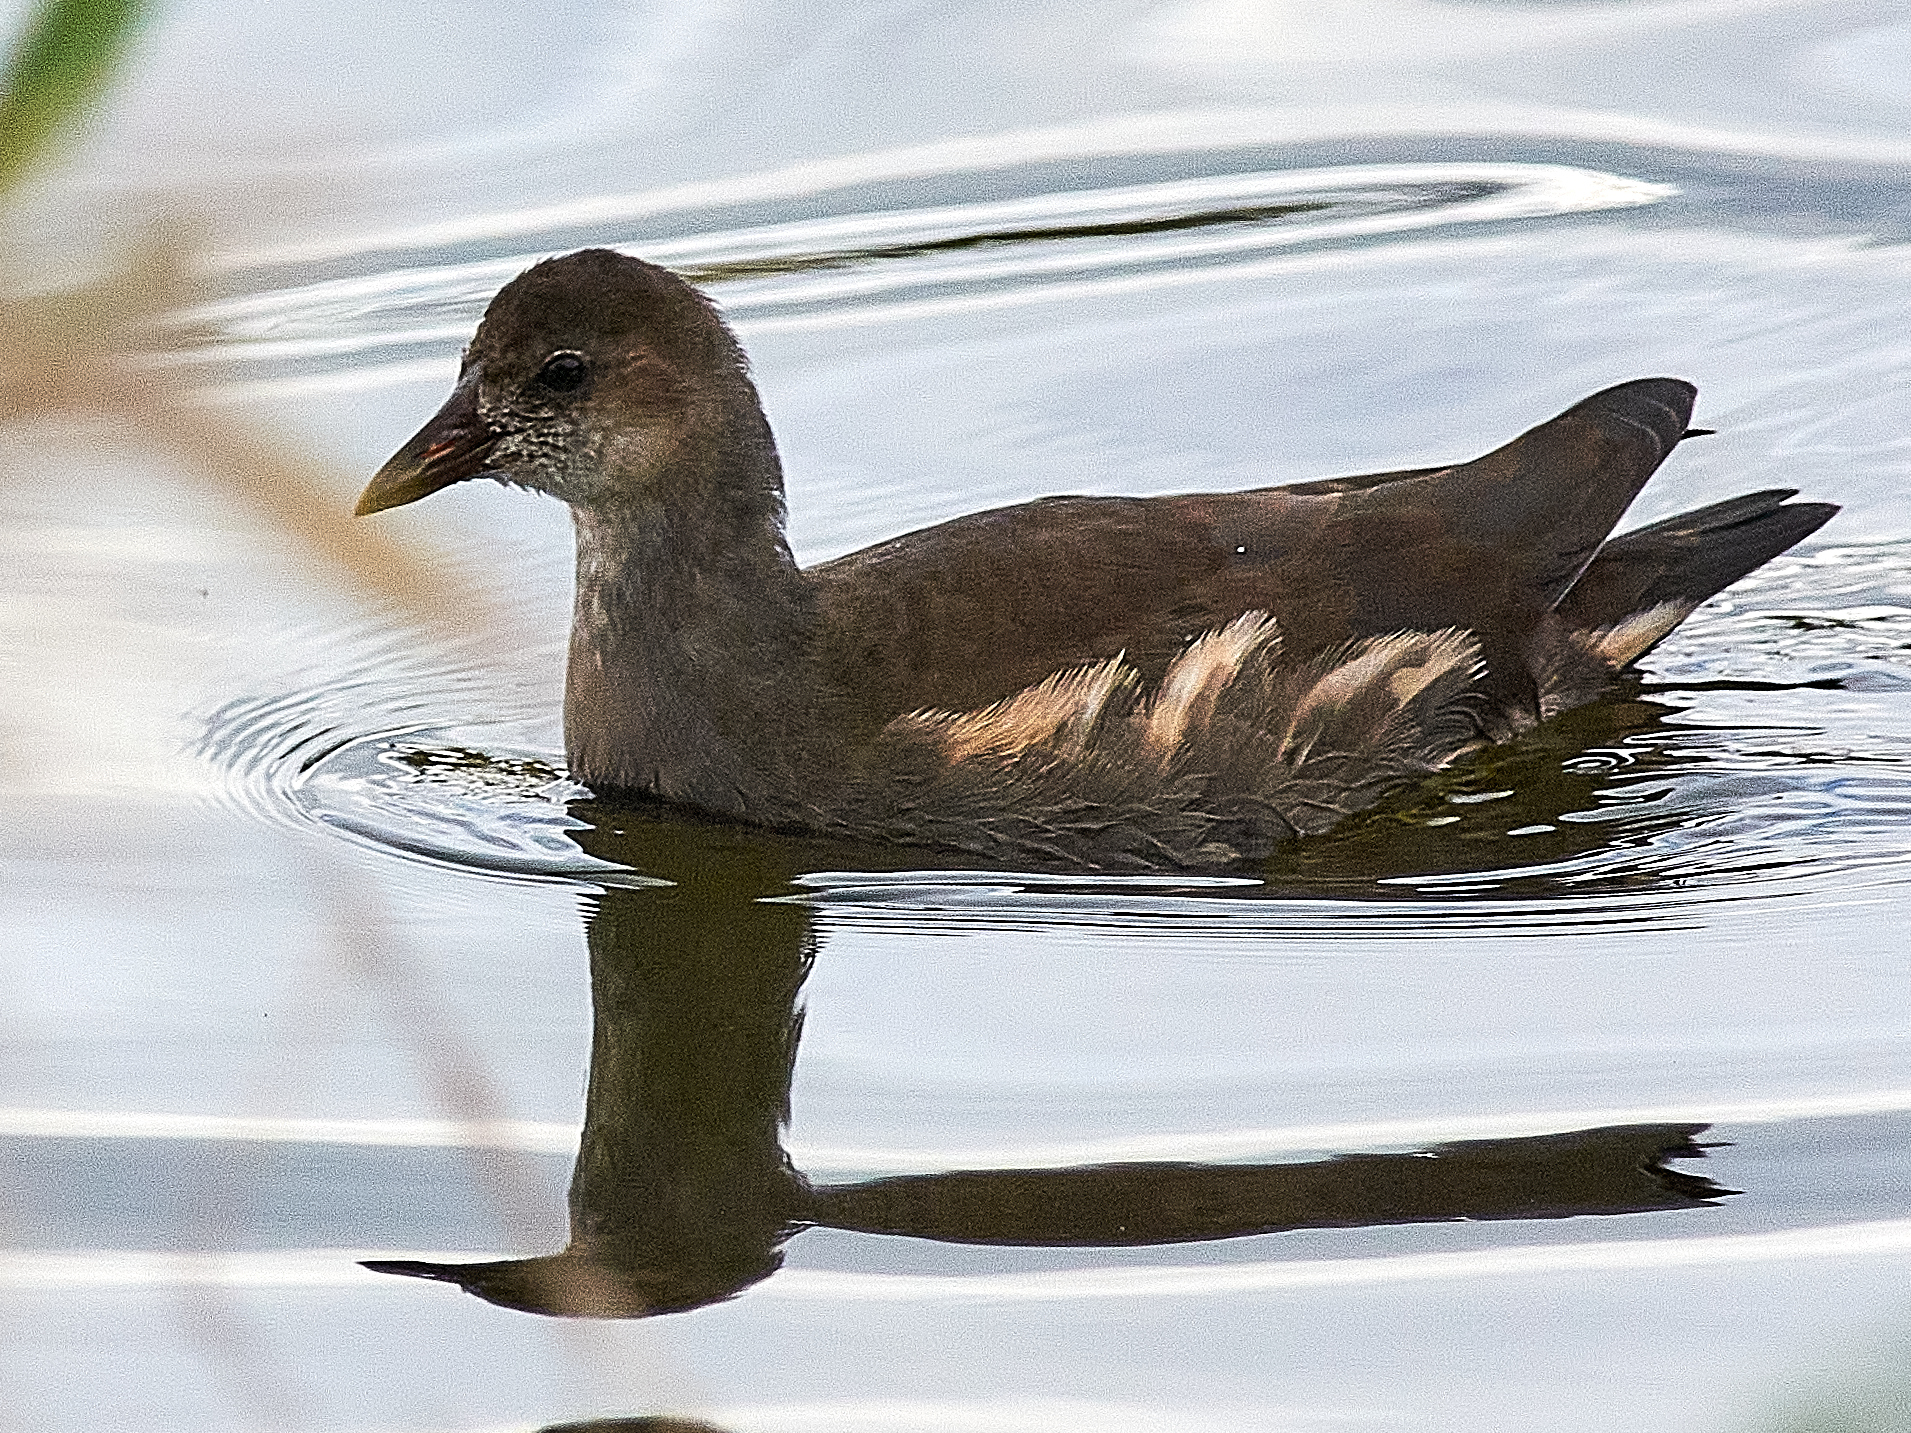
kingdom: Animalia
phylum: Chordata
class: Aves
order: Gruiformes
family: Rallidae
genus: Gallinula
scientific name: Gallinula chloropus
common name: Common moorhen
